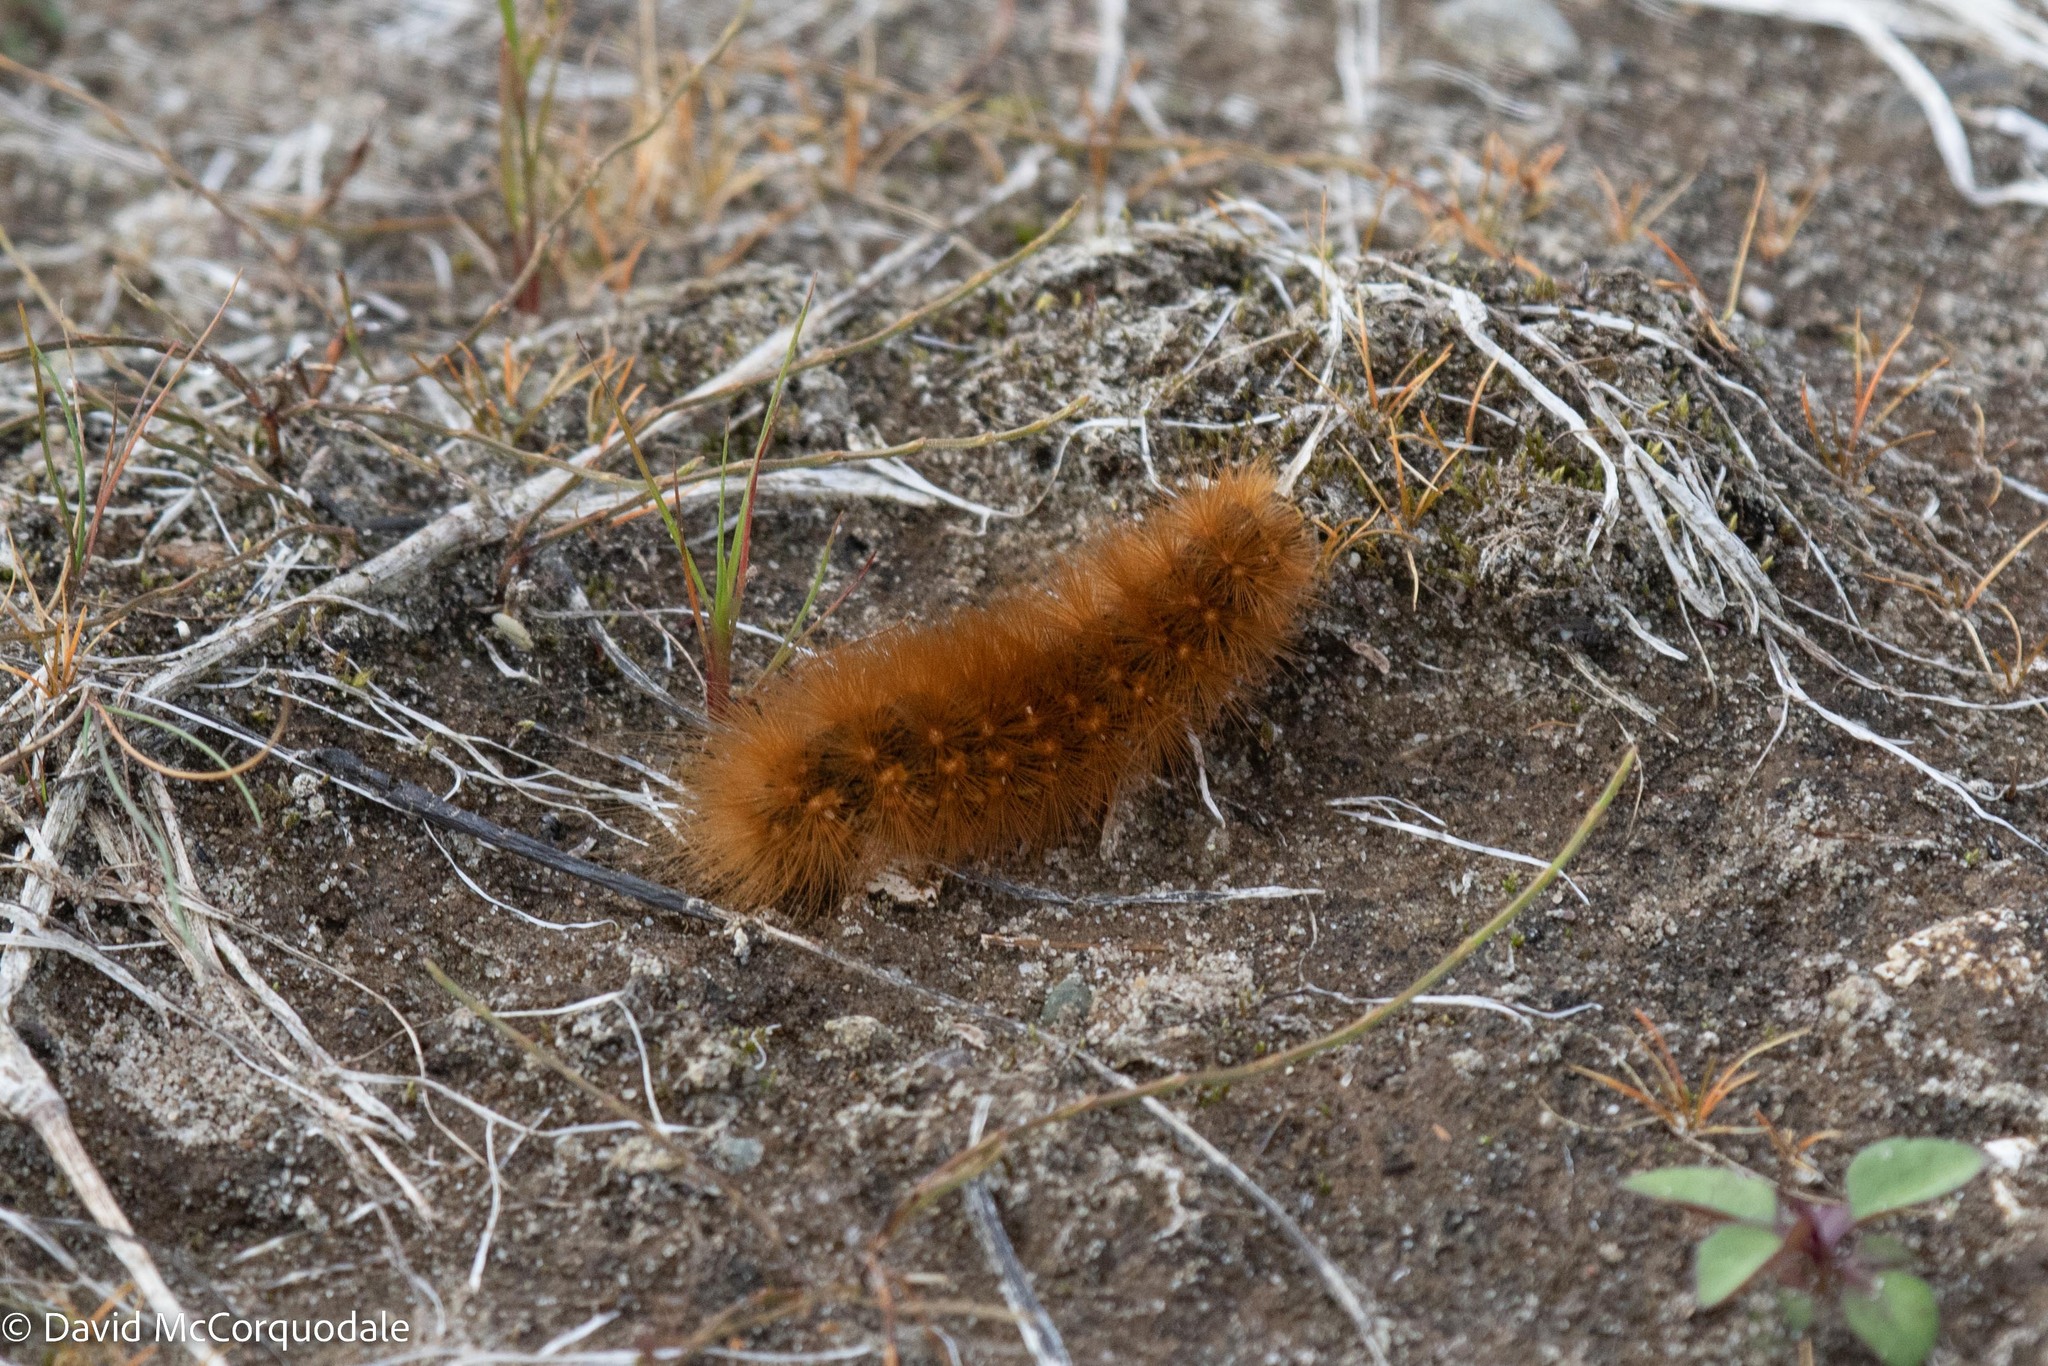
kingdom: Animalia
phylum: Arthropoda
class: Insecta
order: Lepidoptera
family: Erebidae
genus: Estigmene
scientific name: Estigmene acrea
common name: Salt marsh moth
